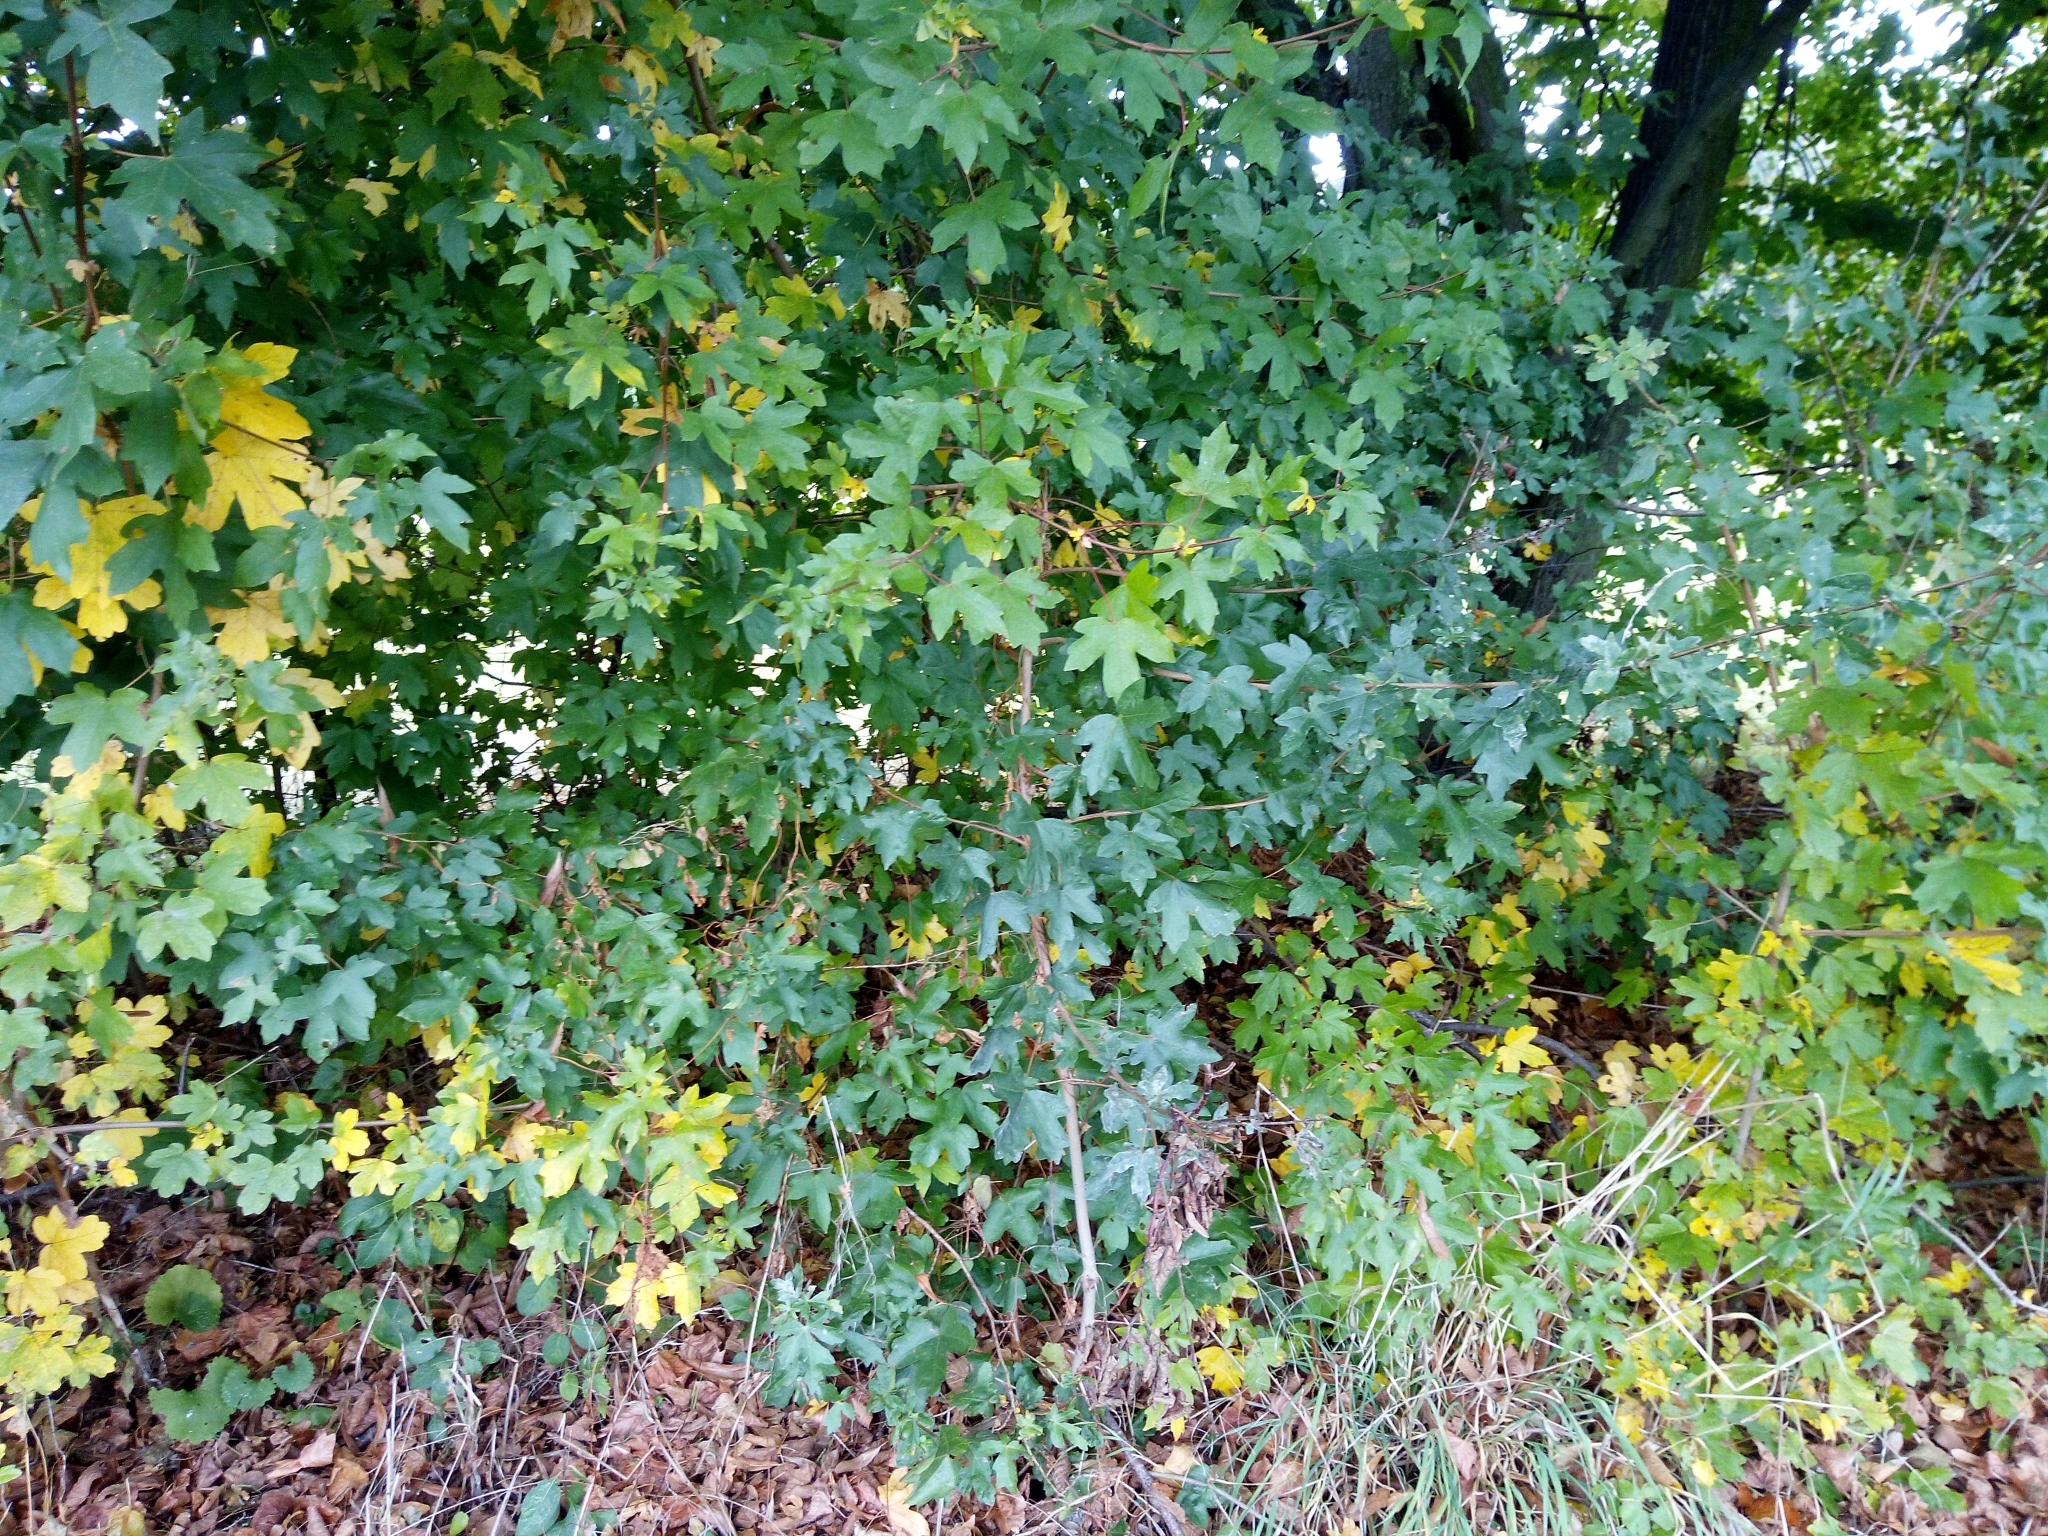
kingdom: Plantae
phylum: Tracheophyta
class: Magnoliopsida
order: Sapindales
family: Sapindaceae
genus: Acer
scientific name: Acer campestre
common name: Field maple
